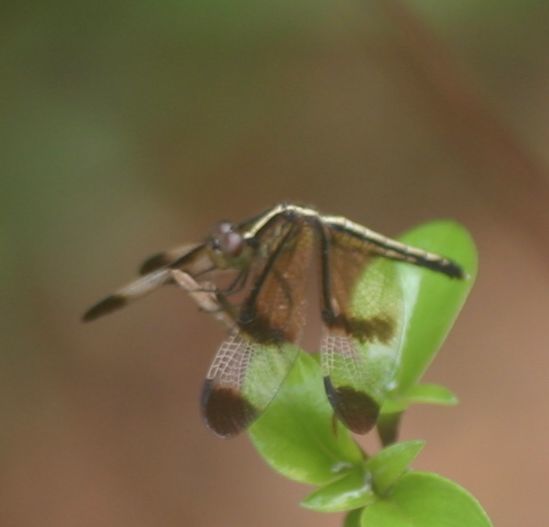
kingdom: Animalia
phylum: Arthropoda
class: Insecta
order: Odonata
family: Libellulidae
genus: Neurothemis
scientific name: Neurothemis tullia
